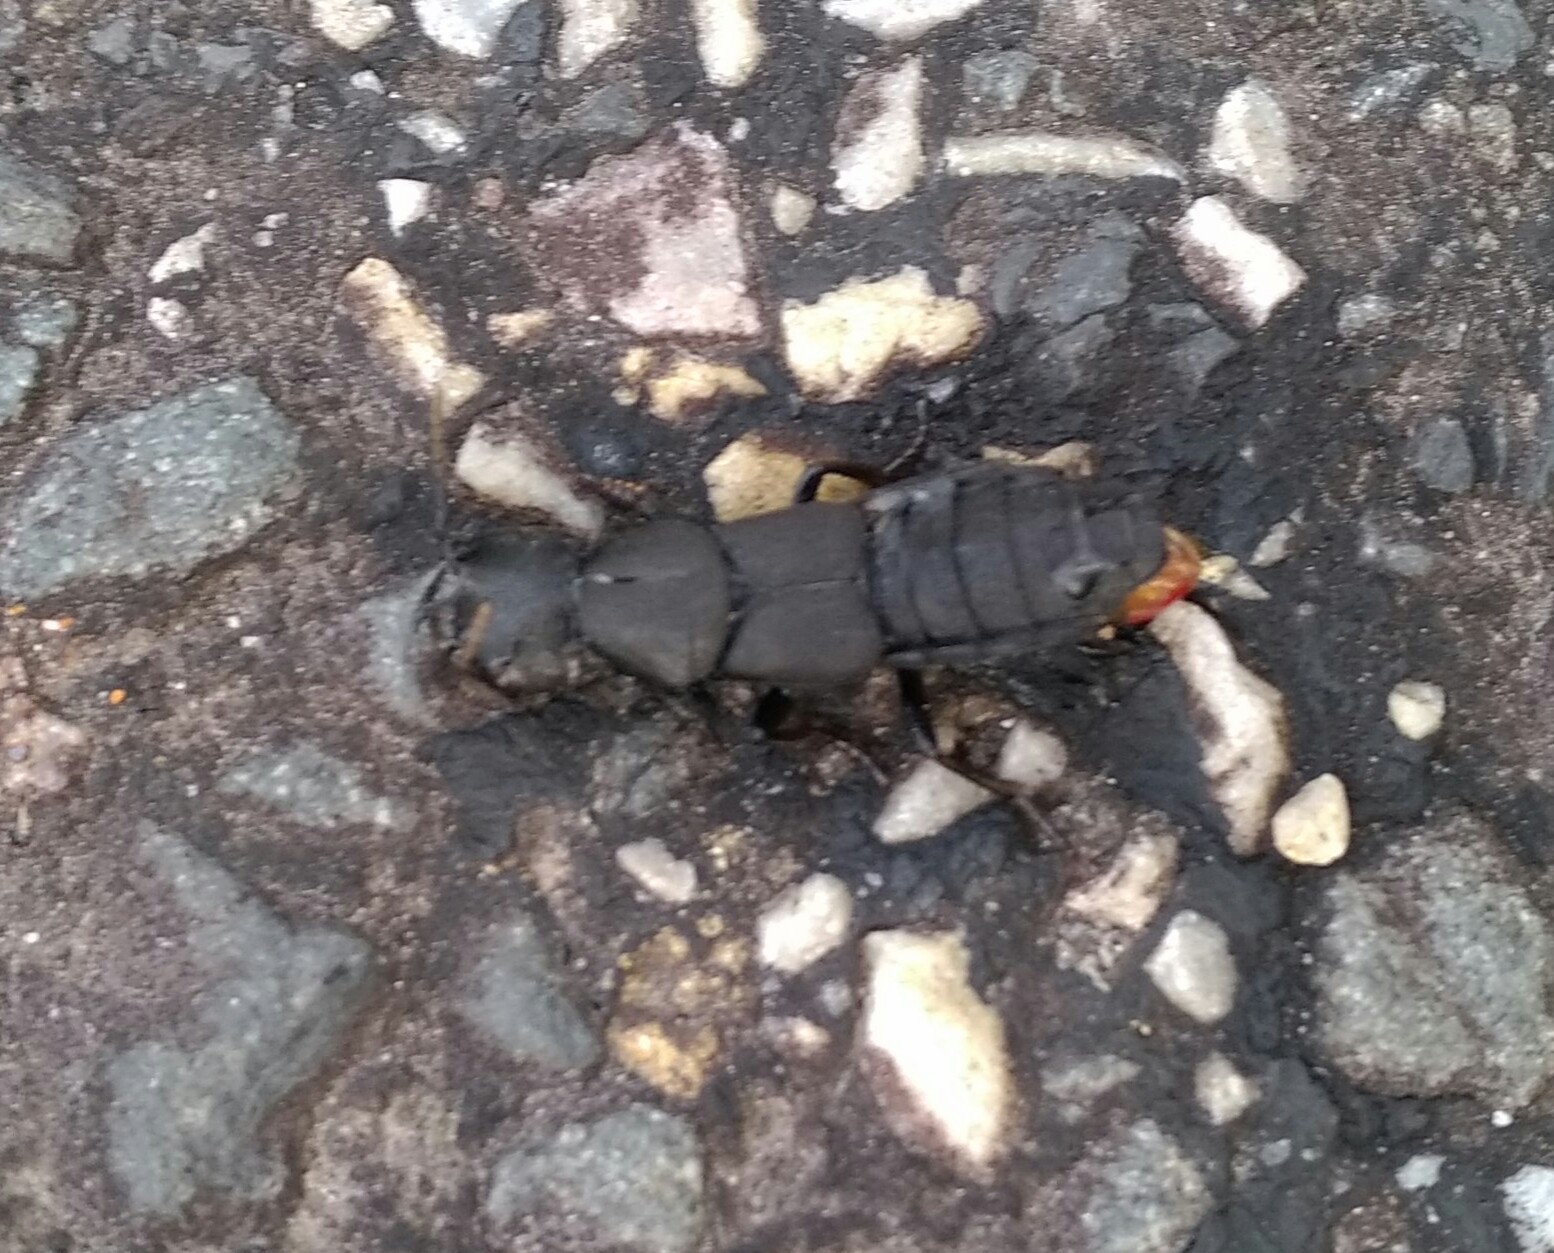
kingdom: Animalia
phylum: Arthropoda
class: Insecta
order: Coleoptera
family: Staphylinidae
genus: Ocypus
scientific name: Ocypus olens
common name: Devil's coach-horse
